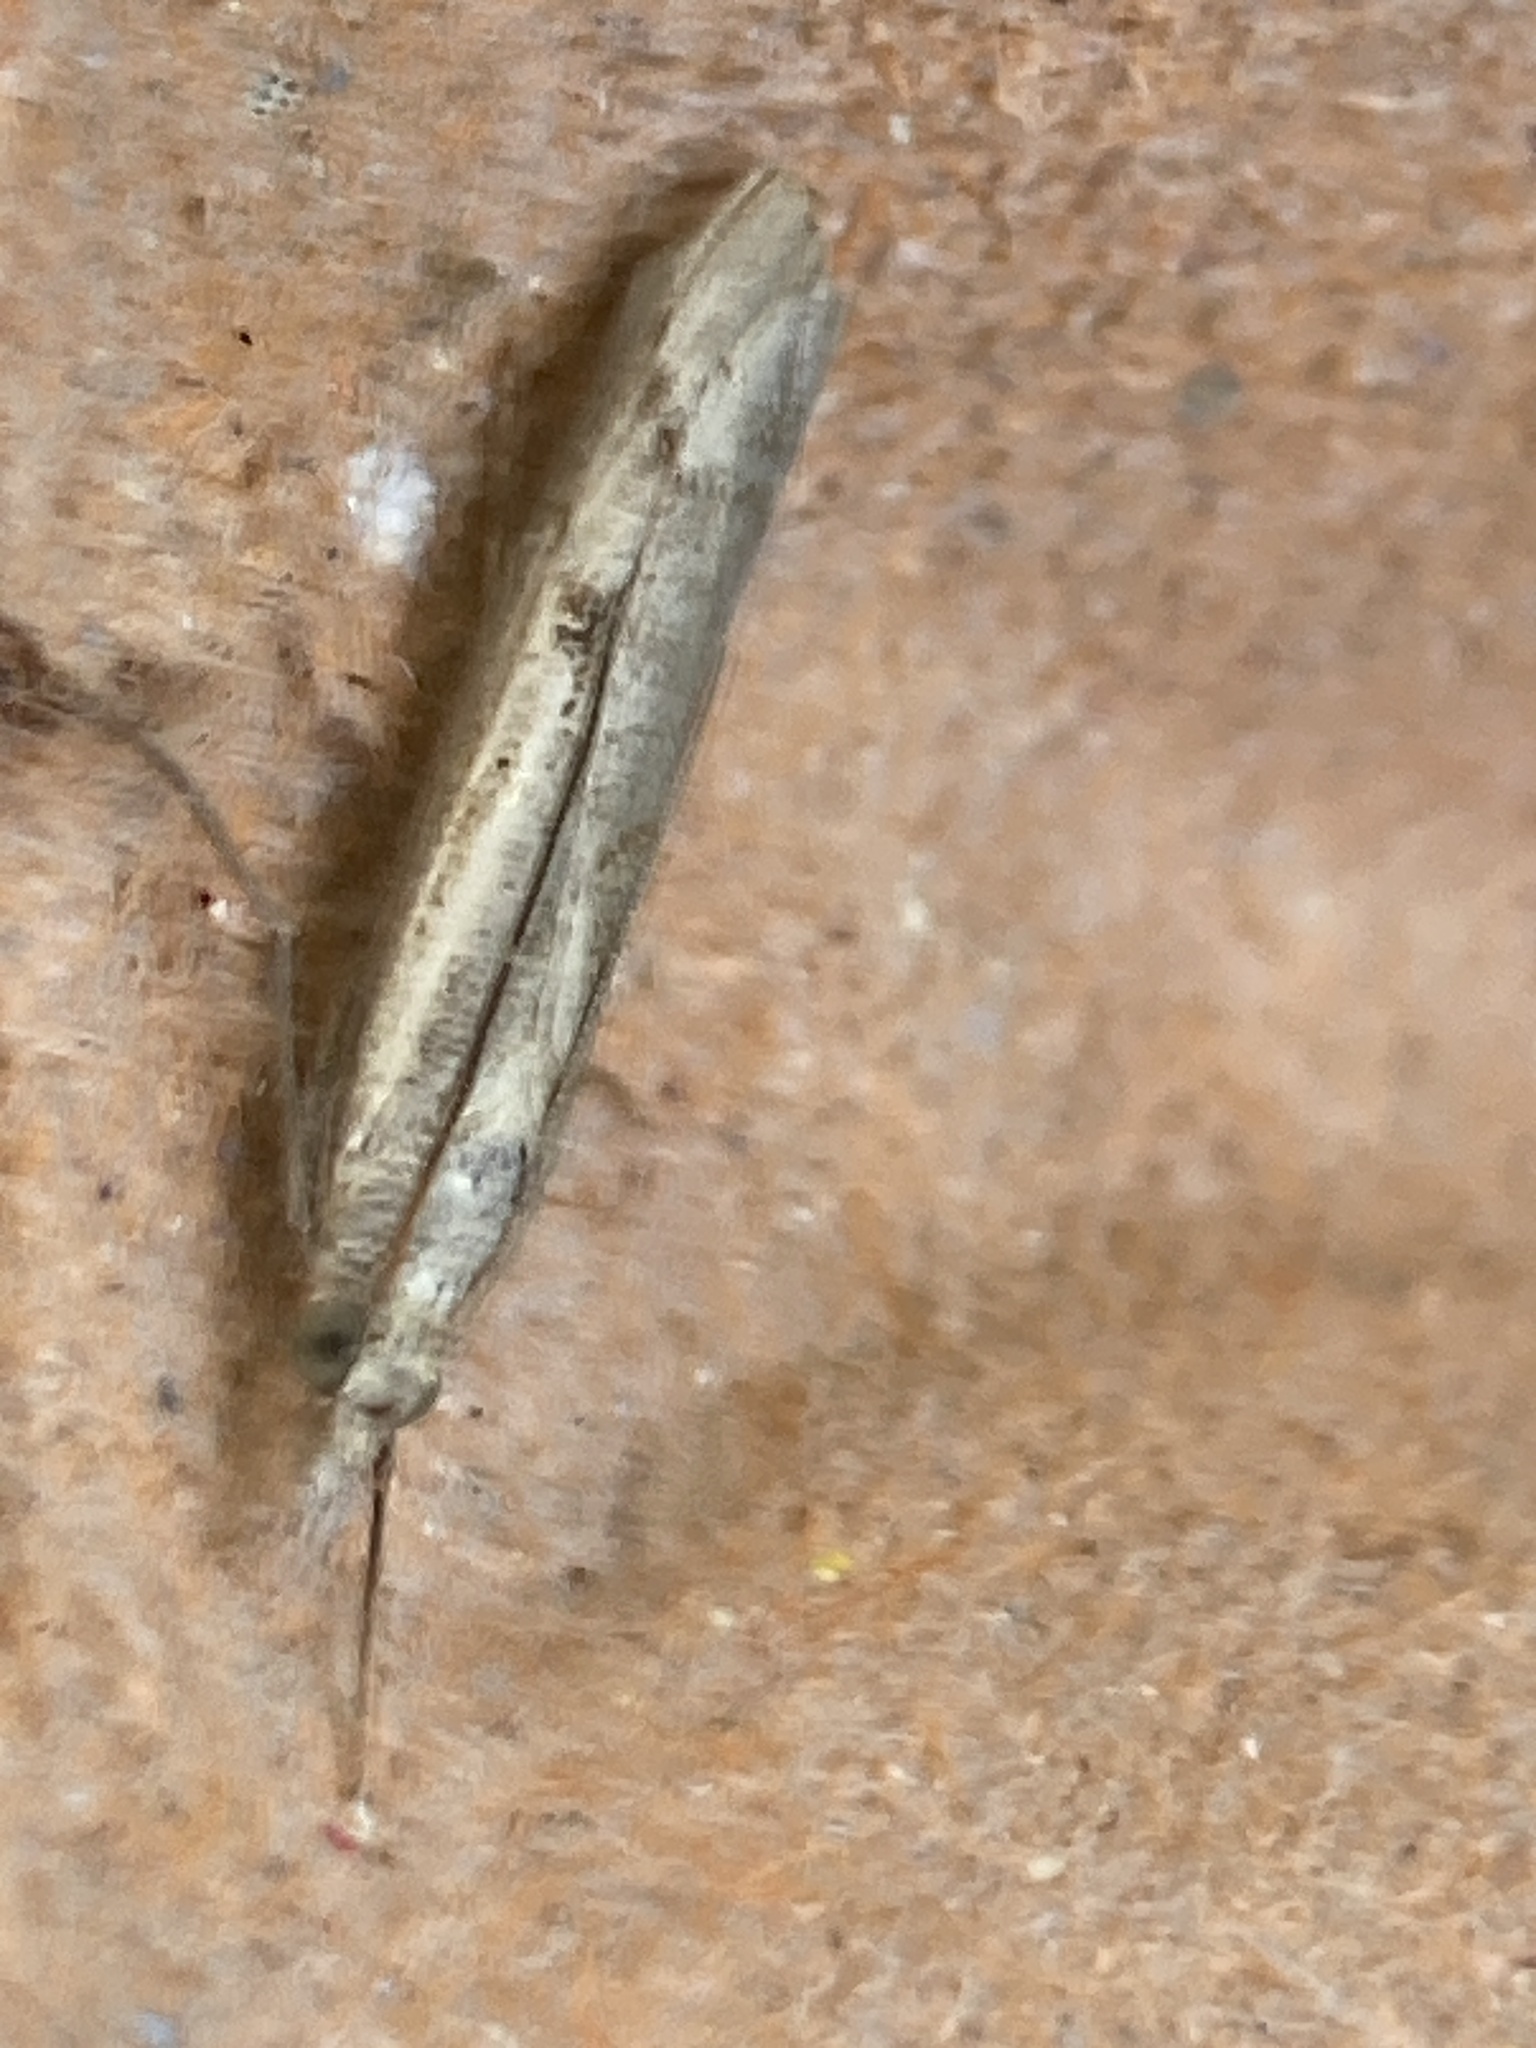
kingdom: Animalia
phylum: Arthropoda
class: Insecta
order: Lepidoptera
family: Crambidae
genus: Agriphila
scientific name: Agriphila geniculea
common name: Elbow-stripe grass-veneer
